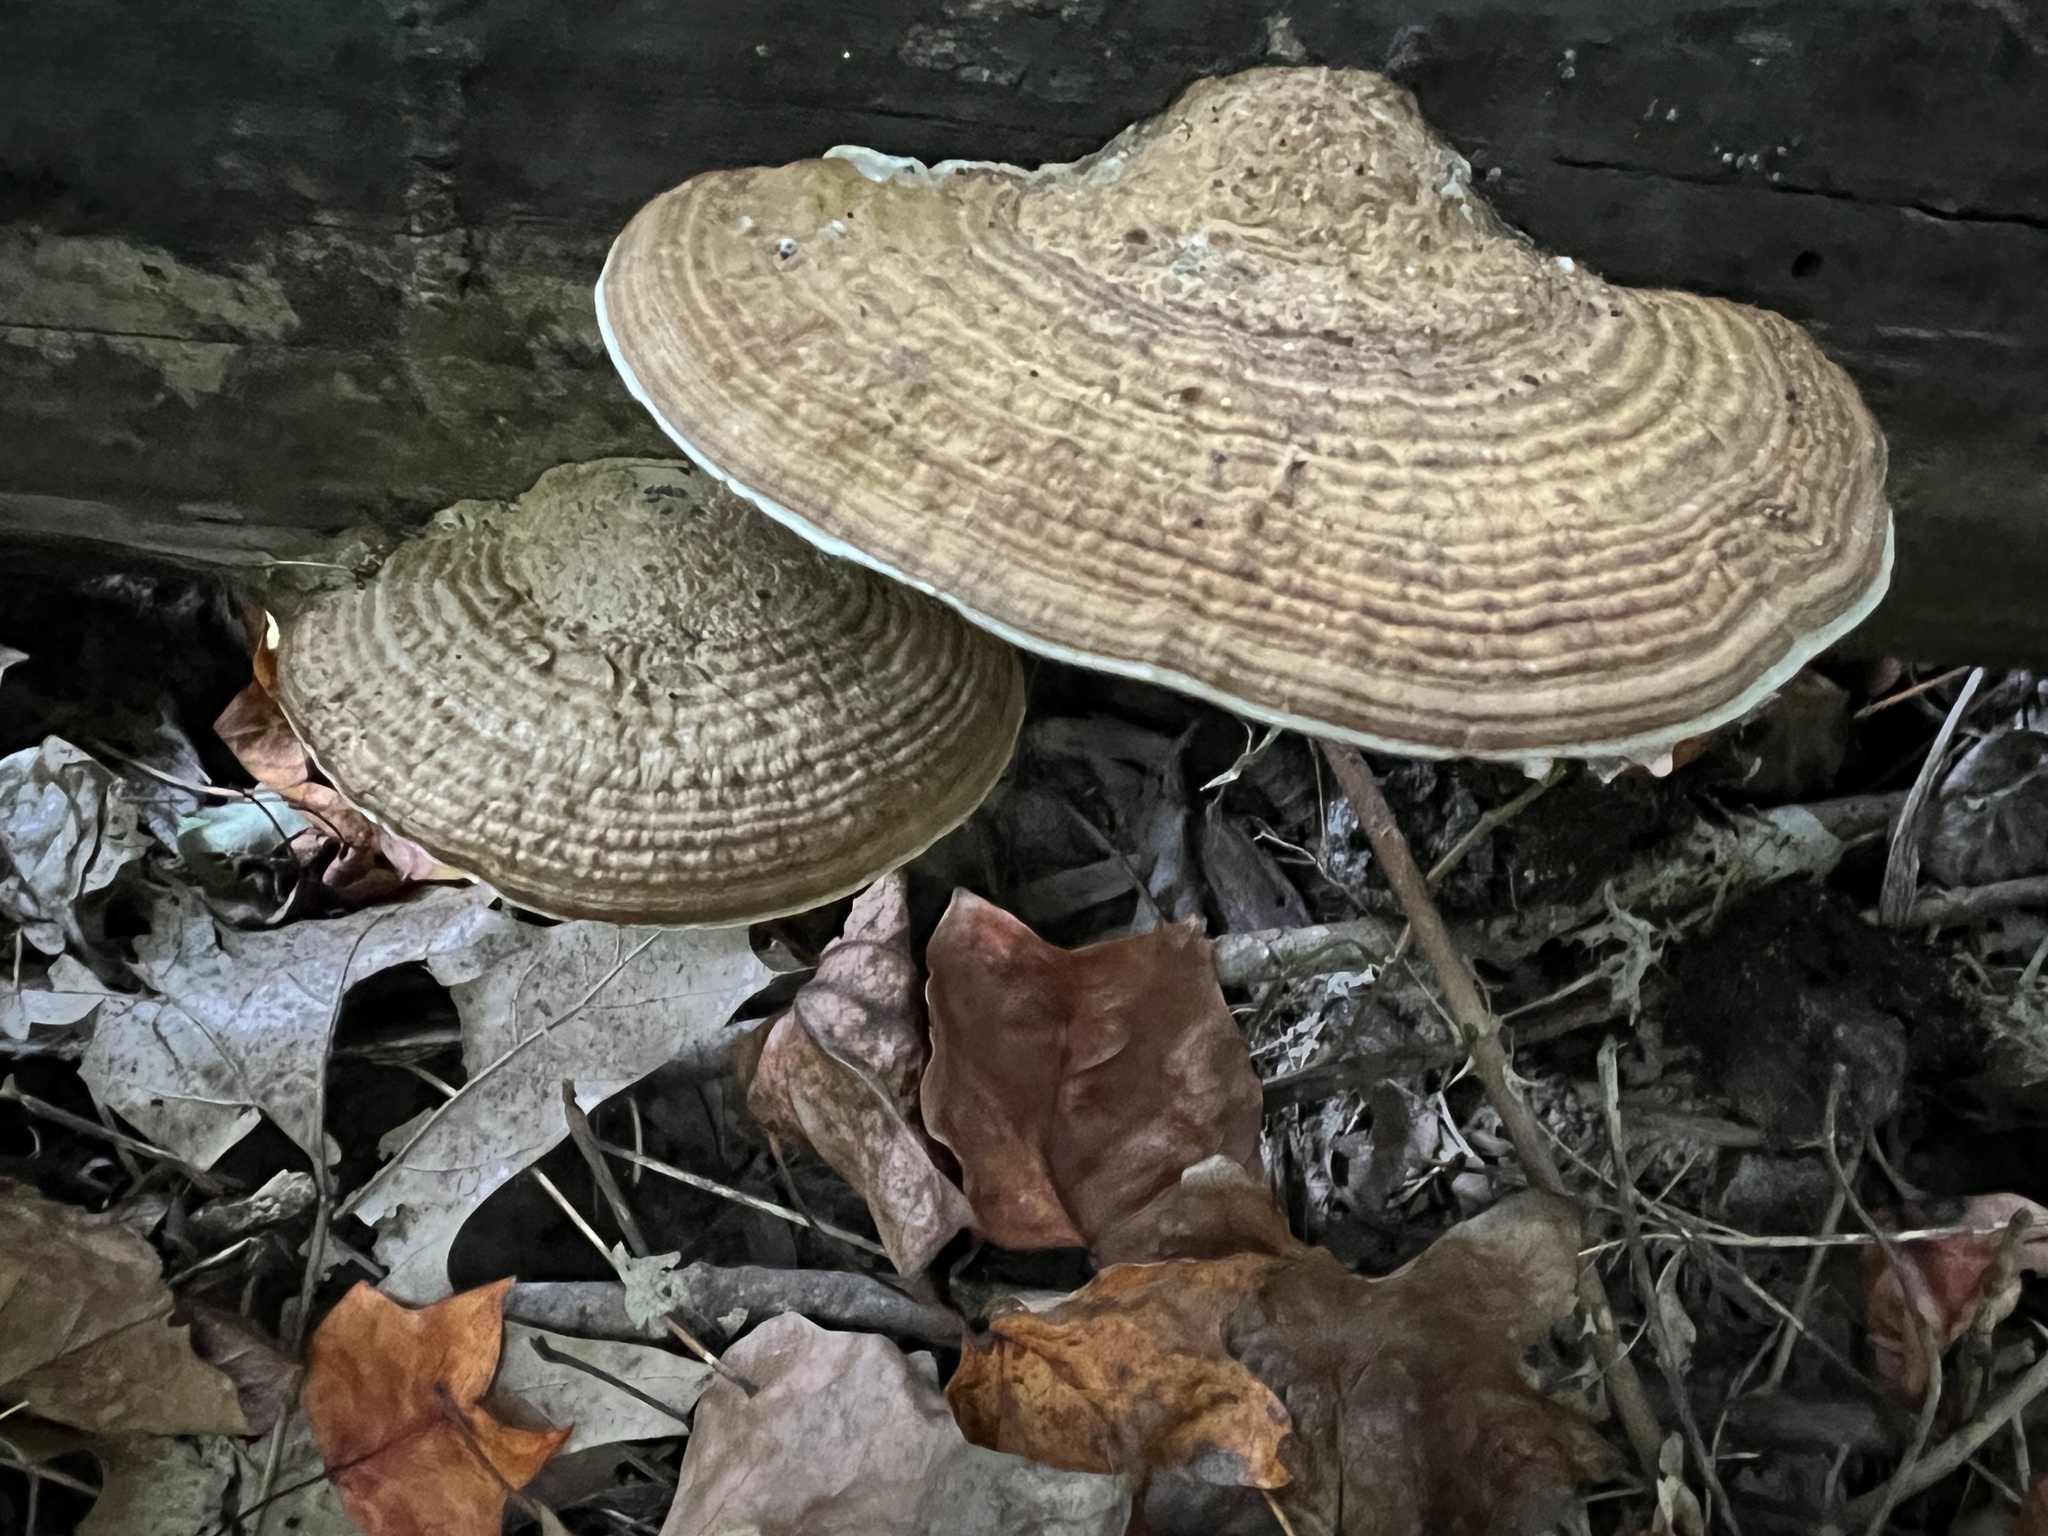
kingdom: Fungi
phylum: Basidiomycota
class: Agaricomycetes
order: Polyporales
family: Polyporaceae
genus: Daedaleopsis
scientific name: Daedaleopsis confragosa
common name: Blushing bracket
